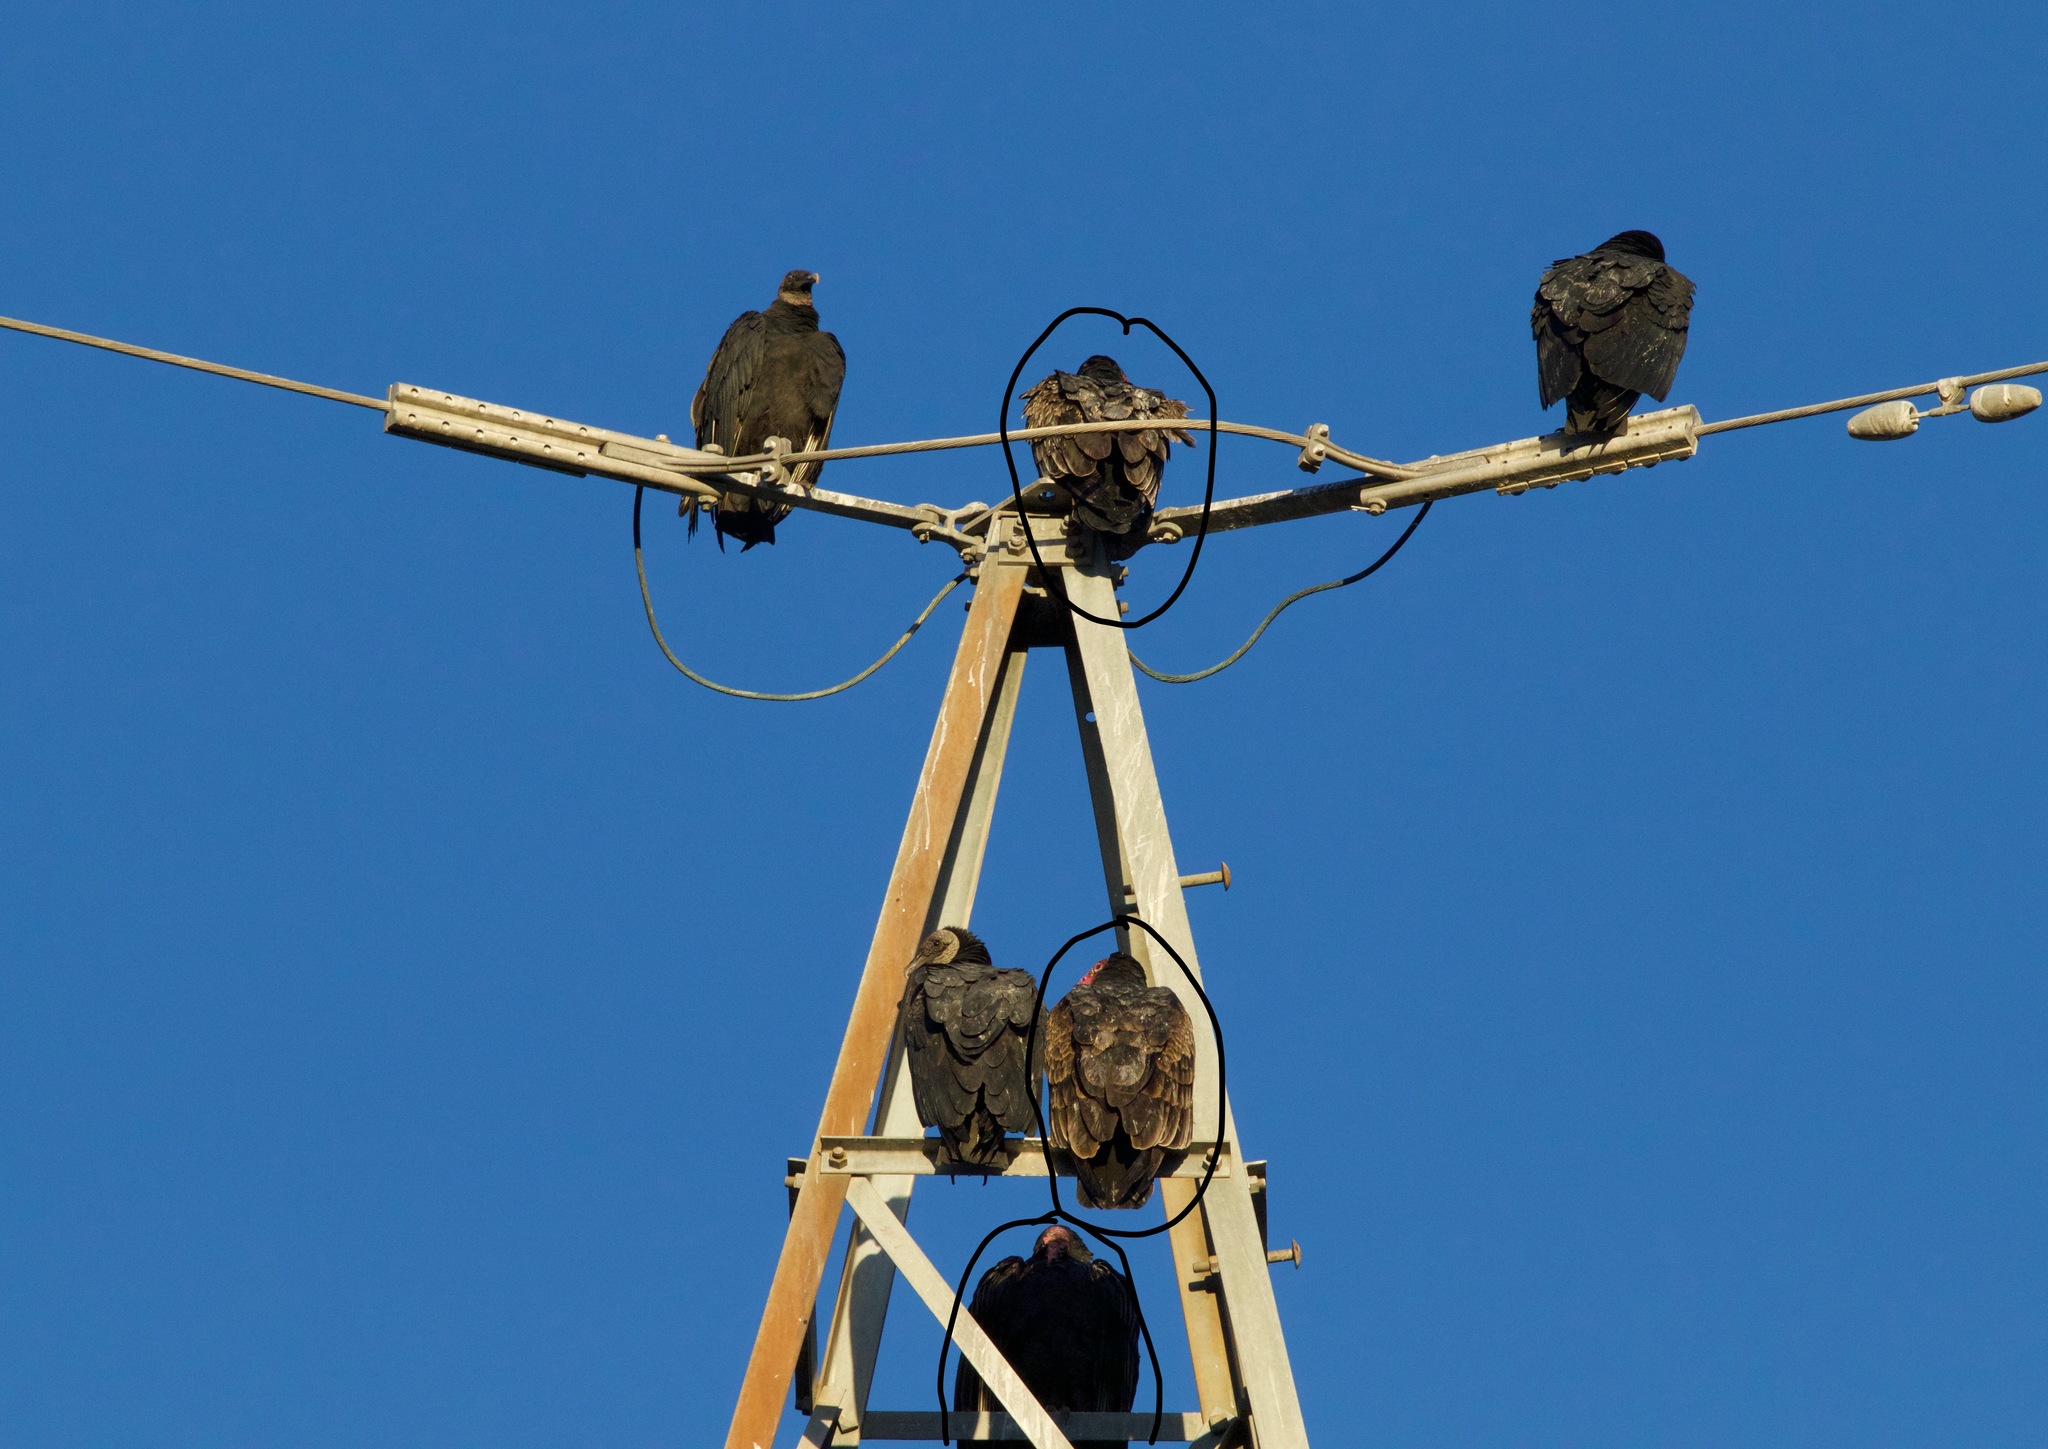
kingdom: Animalia
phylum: Chordata
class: Aves
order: Accipitriformes
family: Cathartidae
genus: Cathartes
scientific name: Cathartes aura
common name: Turkey vulture
